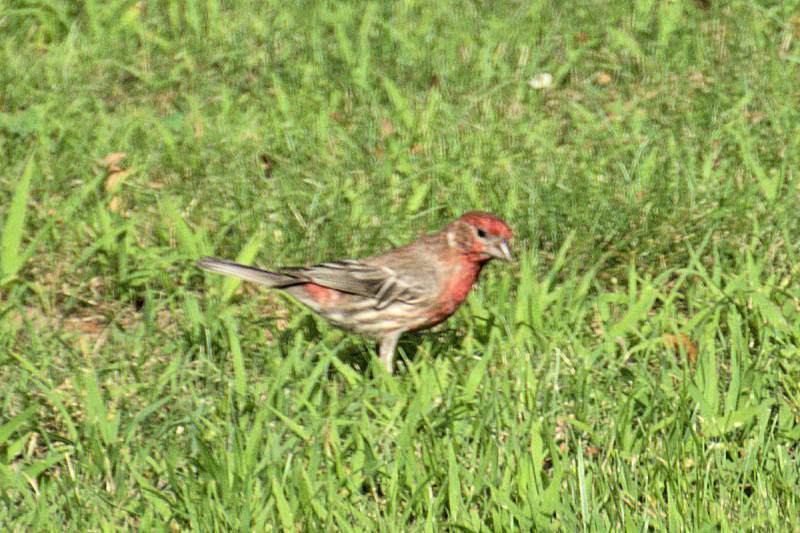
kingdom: Animalia
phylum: Chordata
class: Aves
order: Passeriformes
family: Fringillidae
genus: Haemorhous
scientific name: Haemorhous mexicanus
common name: House finch
